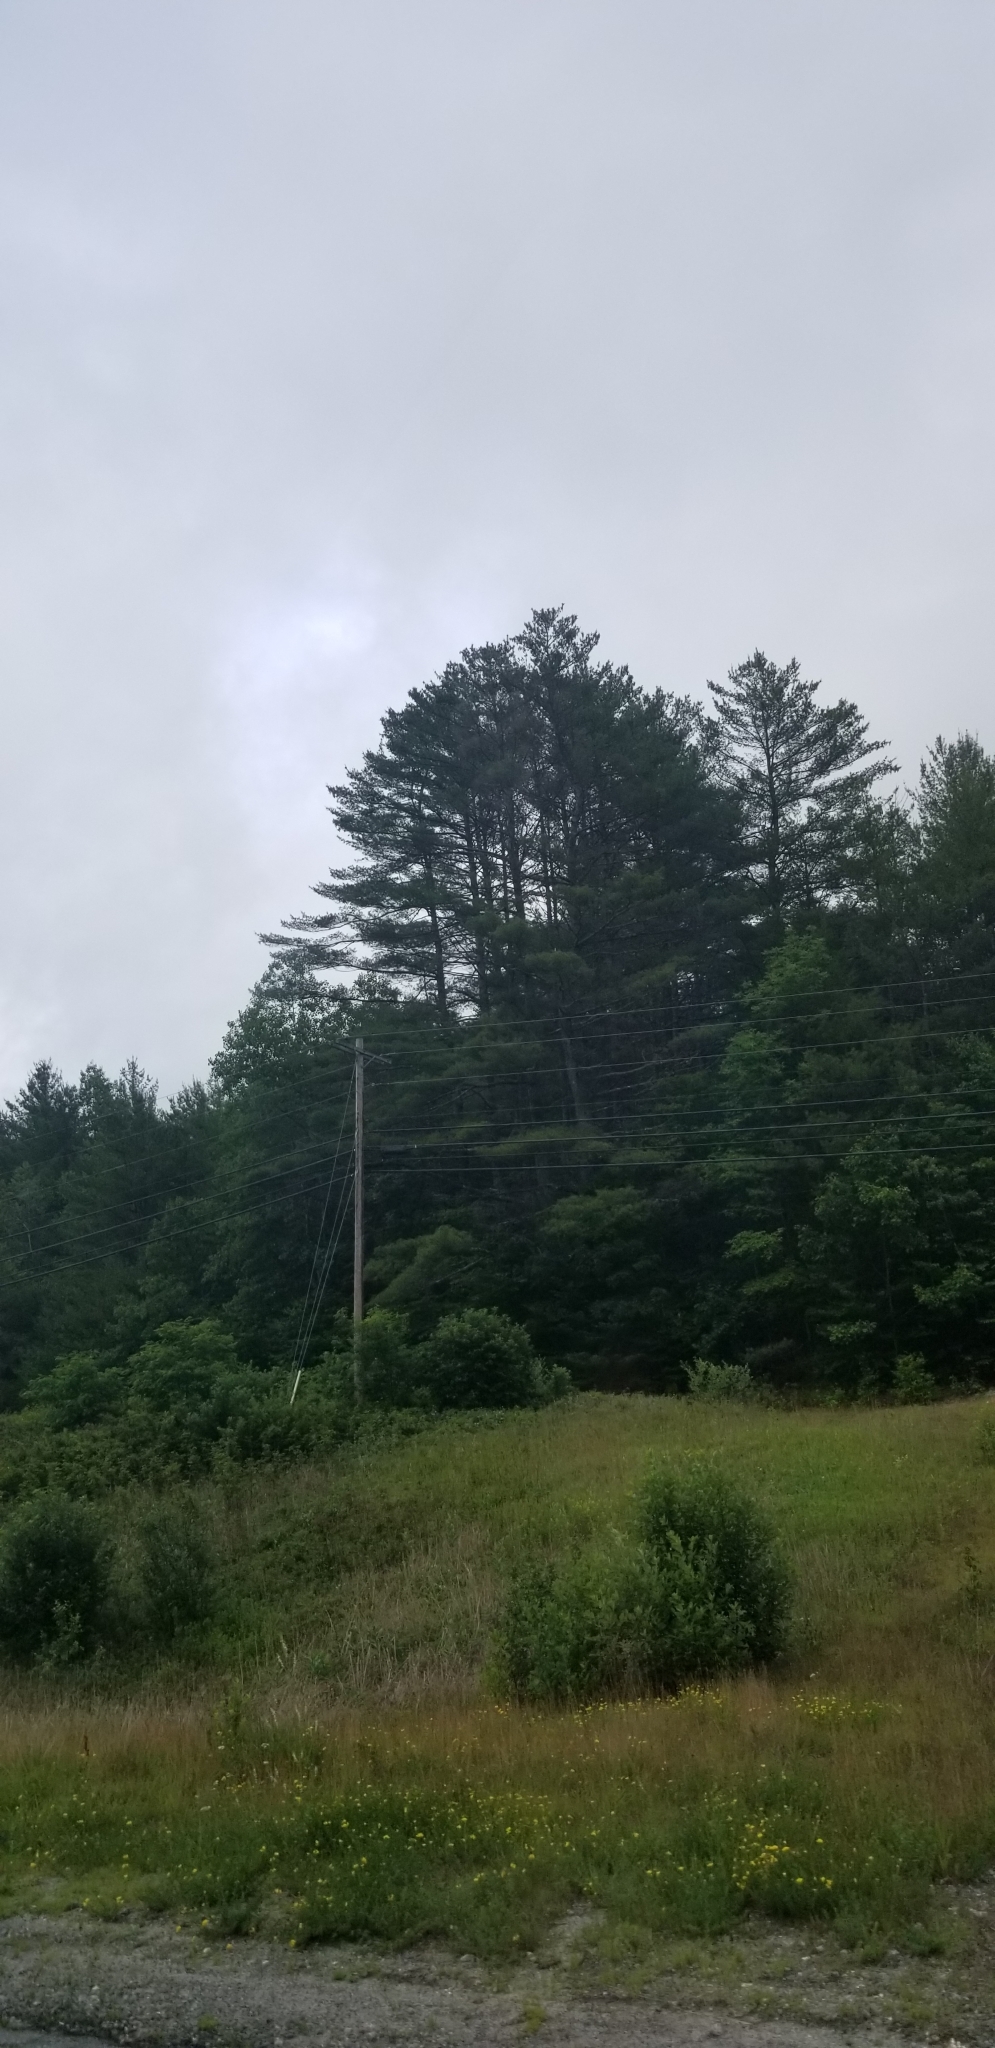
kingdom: Plantae
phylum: Tracheophyta
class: Pinopsida
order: Pinales
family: Pinaceae
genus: Pinus
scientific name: Pinus strobus
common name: Weymouth pine
